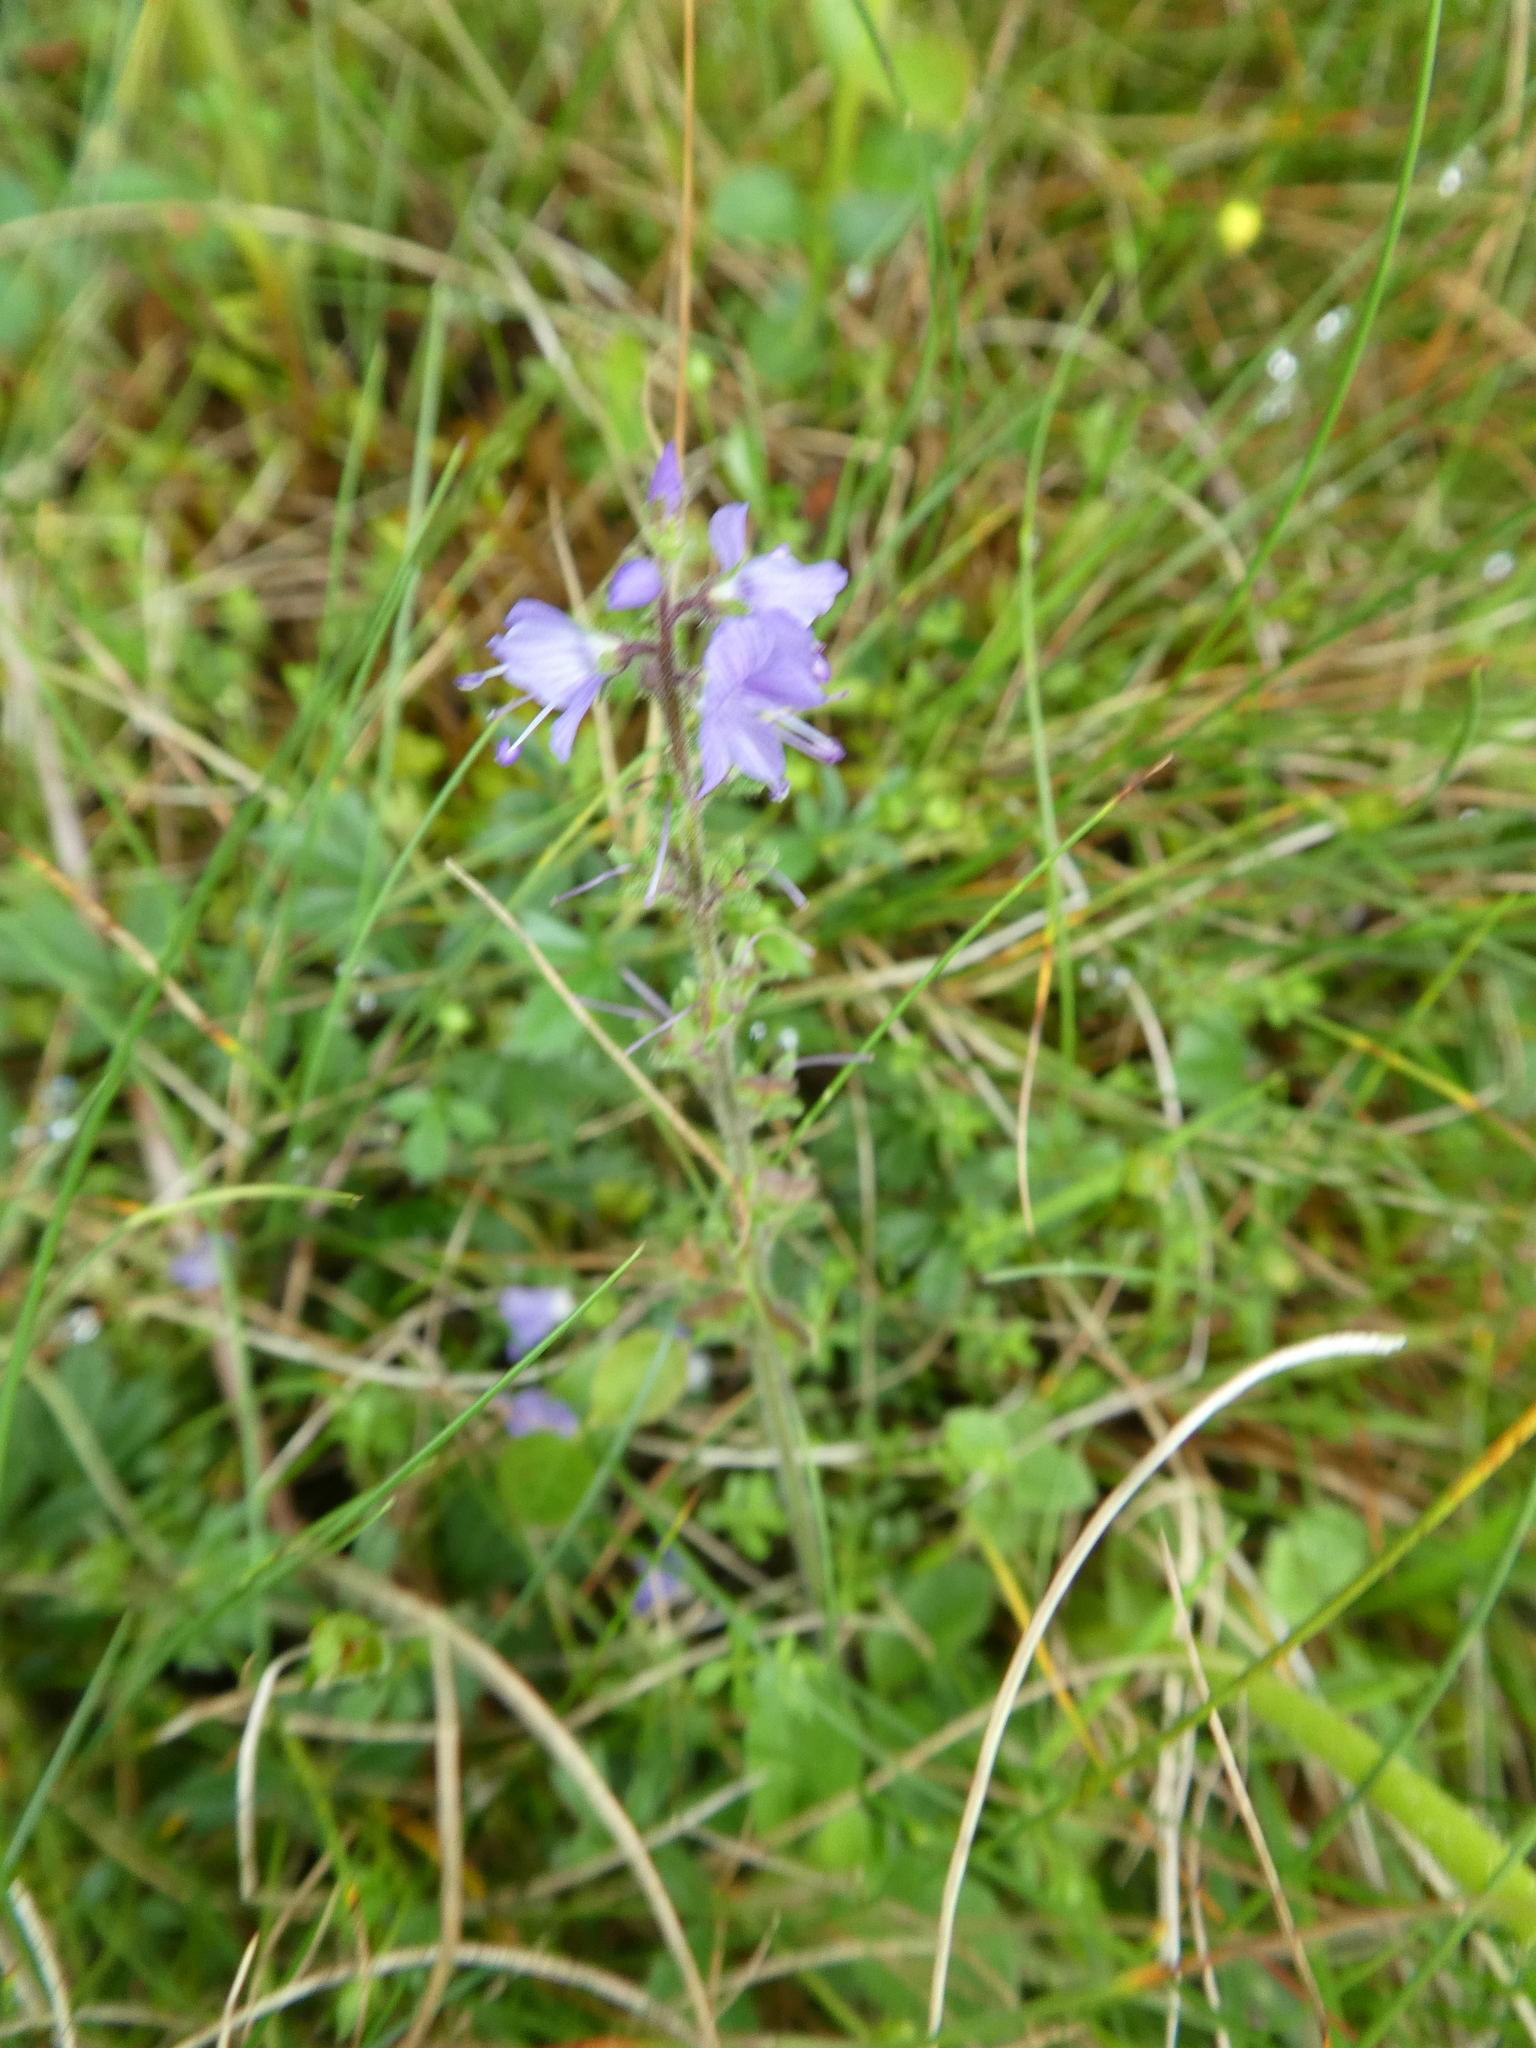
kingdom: Plantae
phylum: Tracheophyta
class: Magnoliopsida
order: Lamiales
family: Plantaginaceae
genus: Veronica
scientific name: Veronica officinalis
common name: Common speedwell
